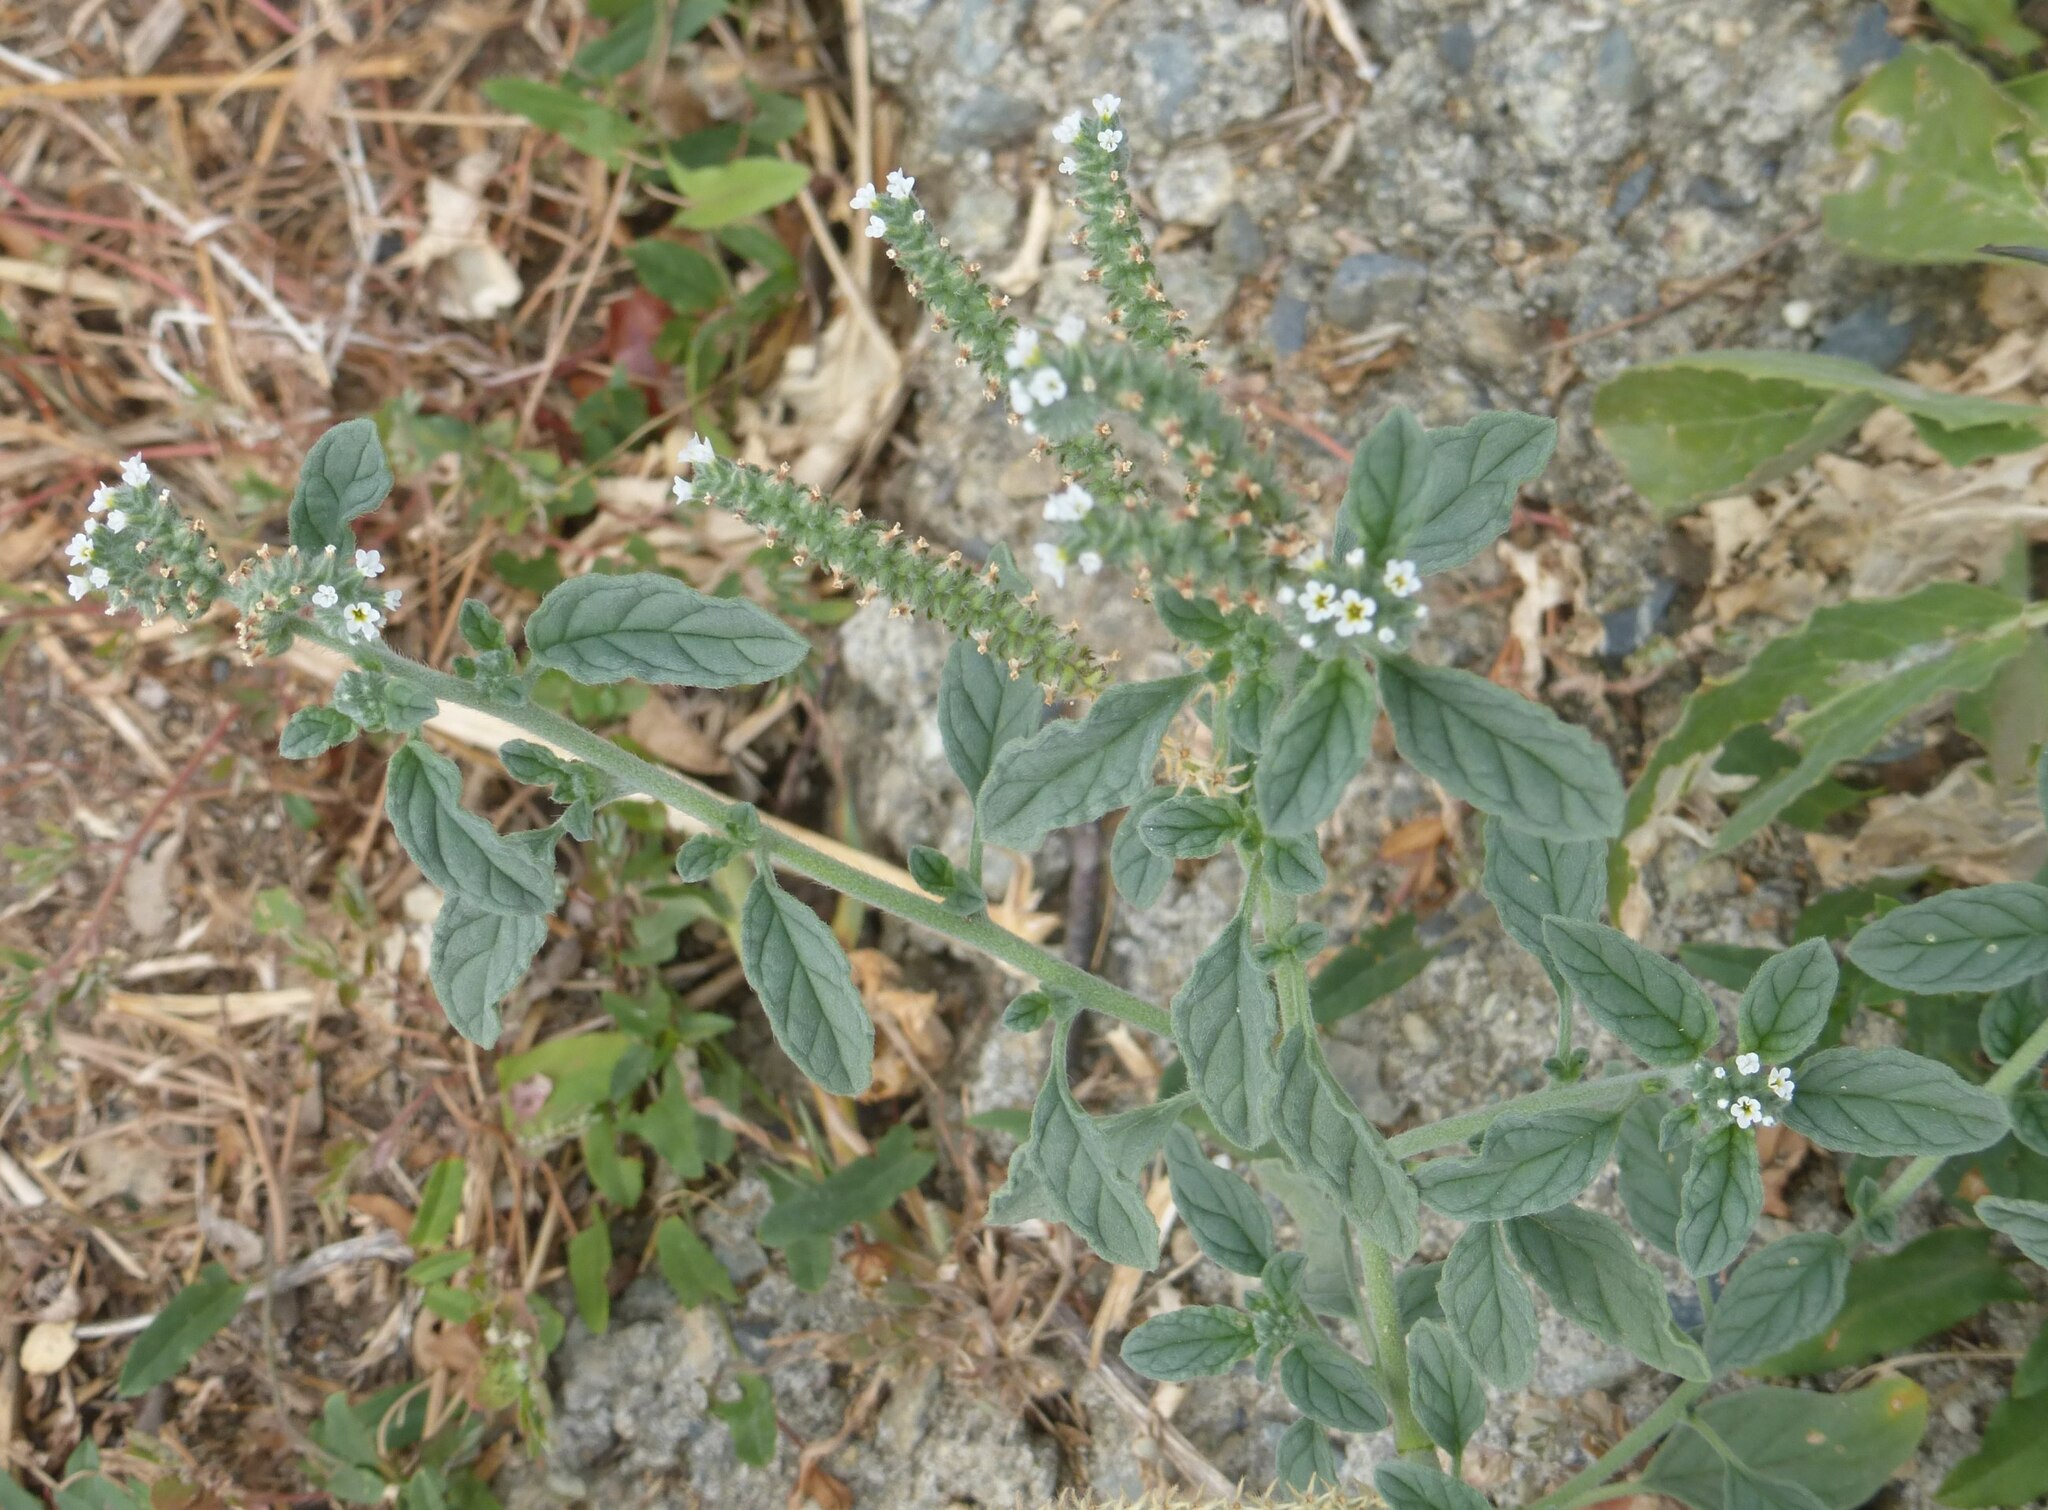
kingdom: Plantae
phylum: Tracheophyta
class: Magnoliopsida
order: Boraginales
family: Heliotropiaceae
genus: Heliotropium
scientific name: Heliotropium europaeum
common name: European heliotrope
